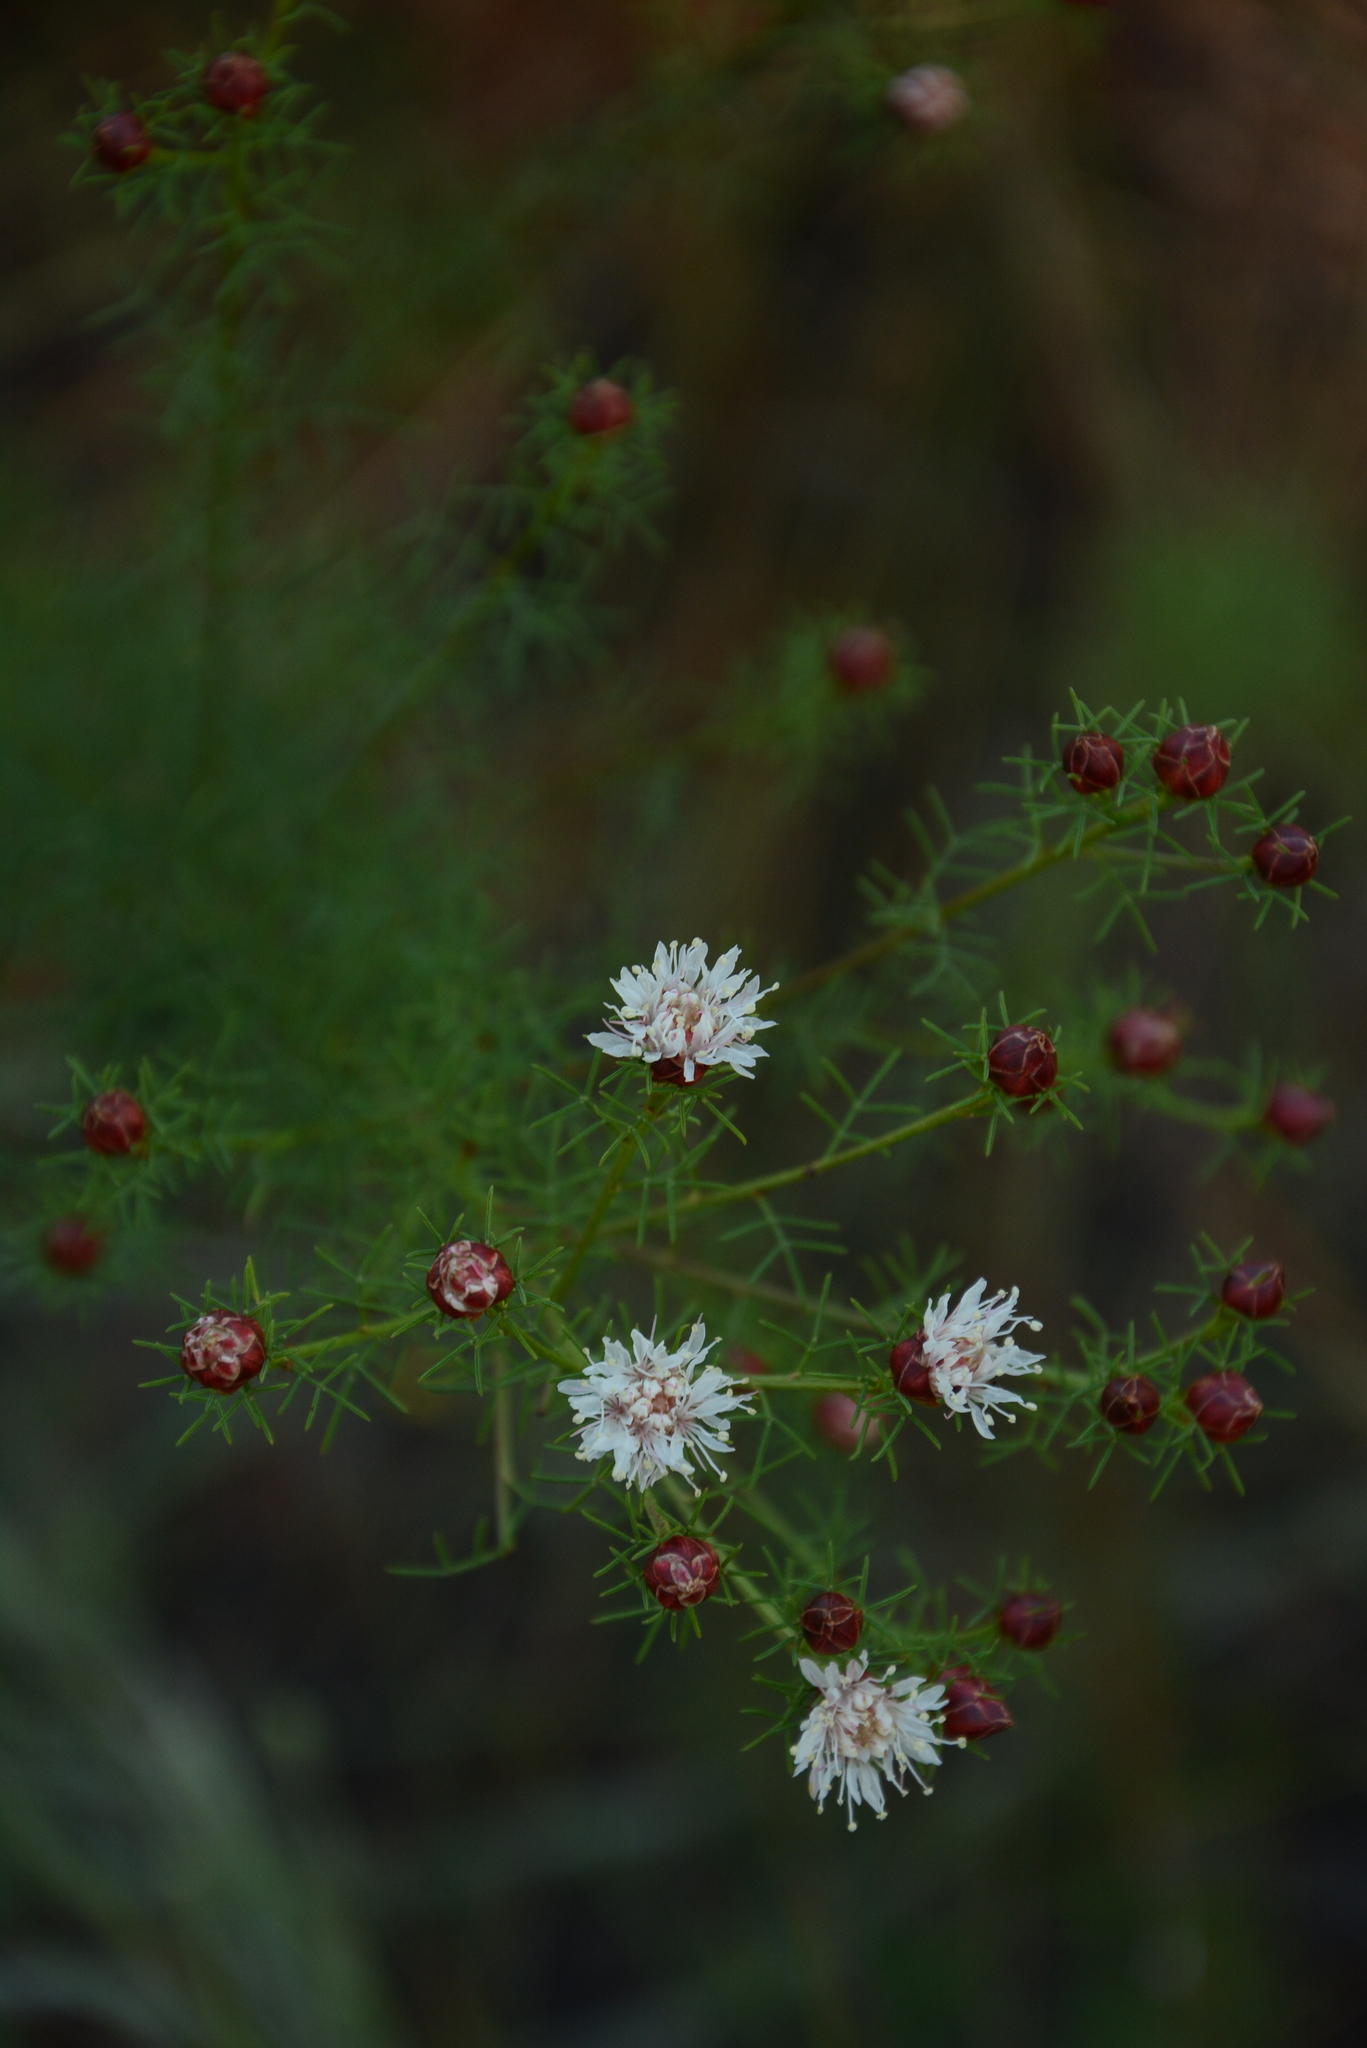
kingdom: Plantae
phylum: Tracheophyta
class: Magnoliopsida
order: Fabales
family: Fabaceae
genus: Dalea
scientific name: Dalea pinnata
